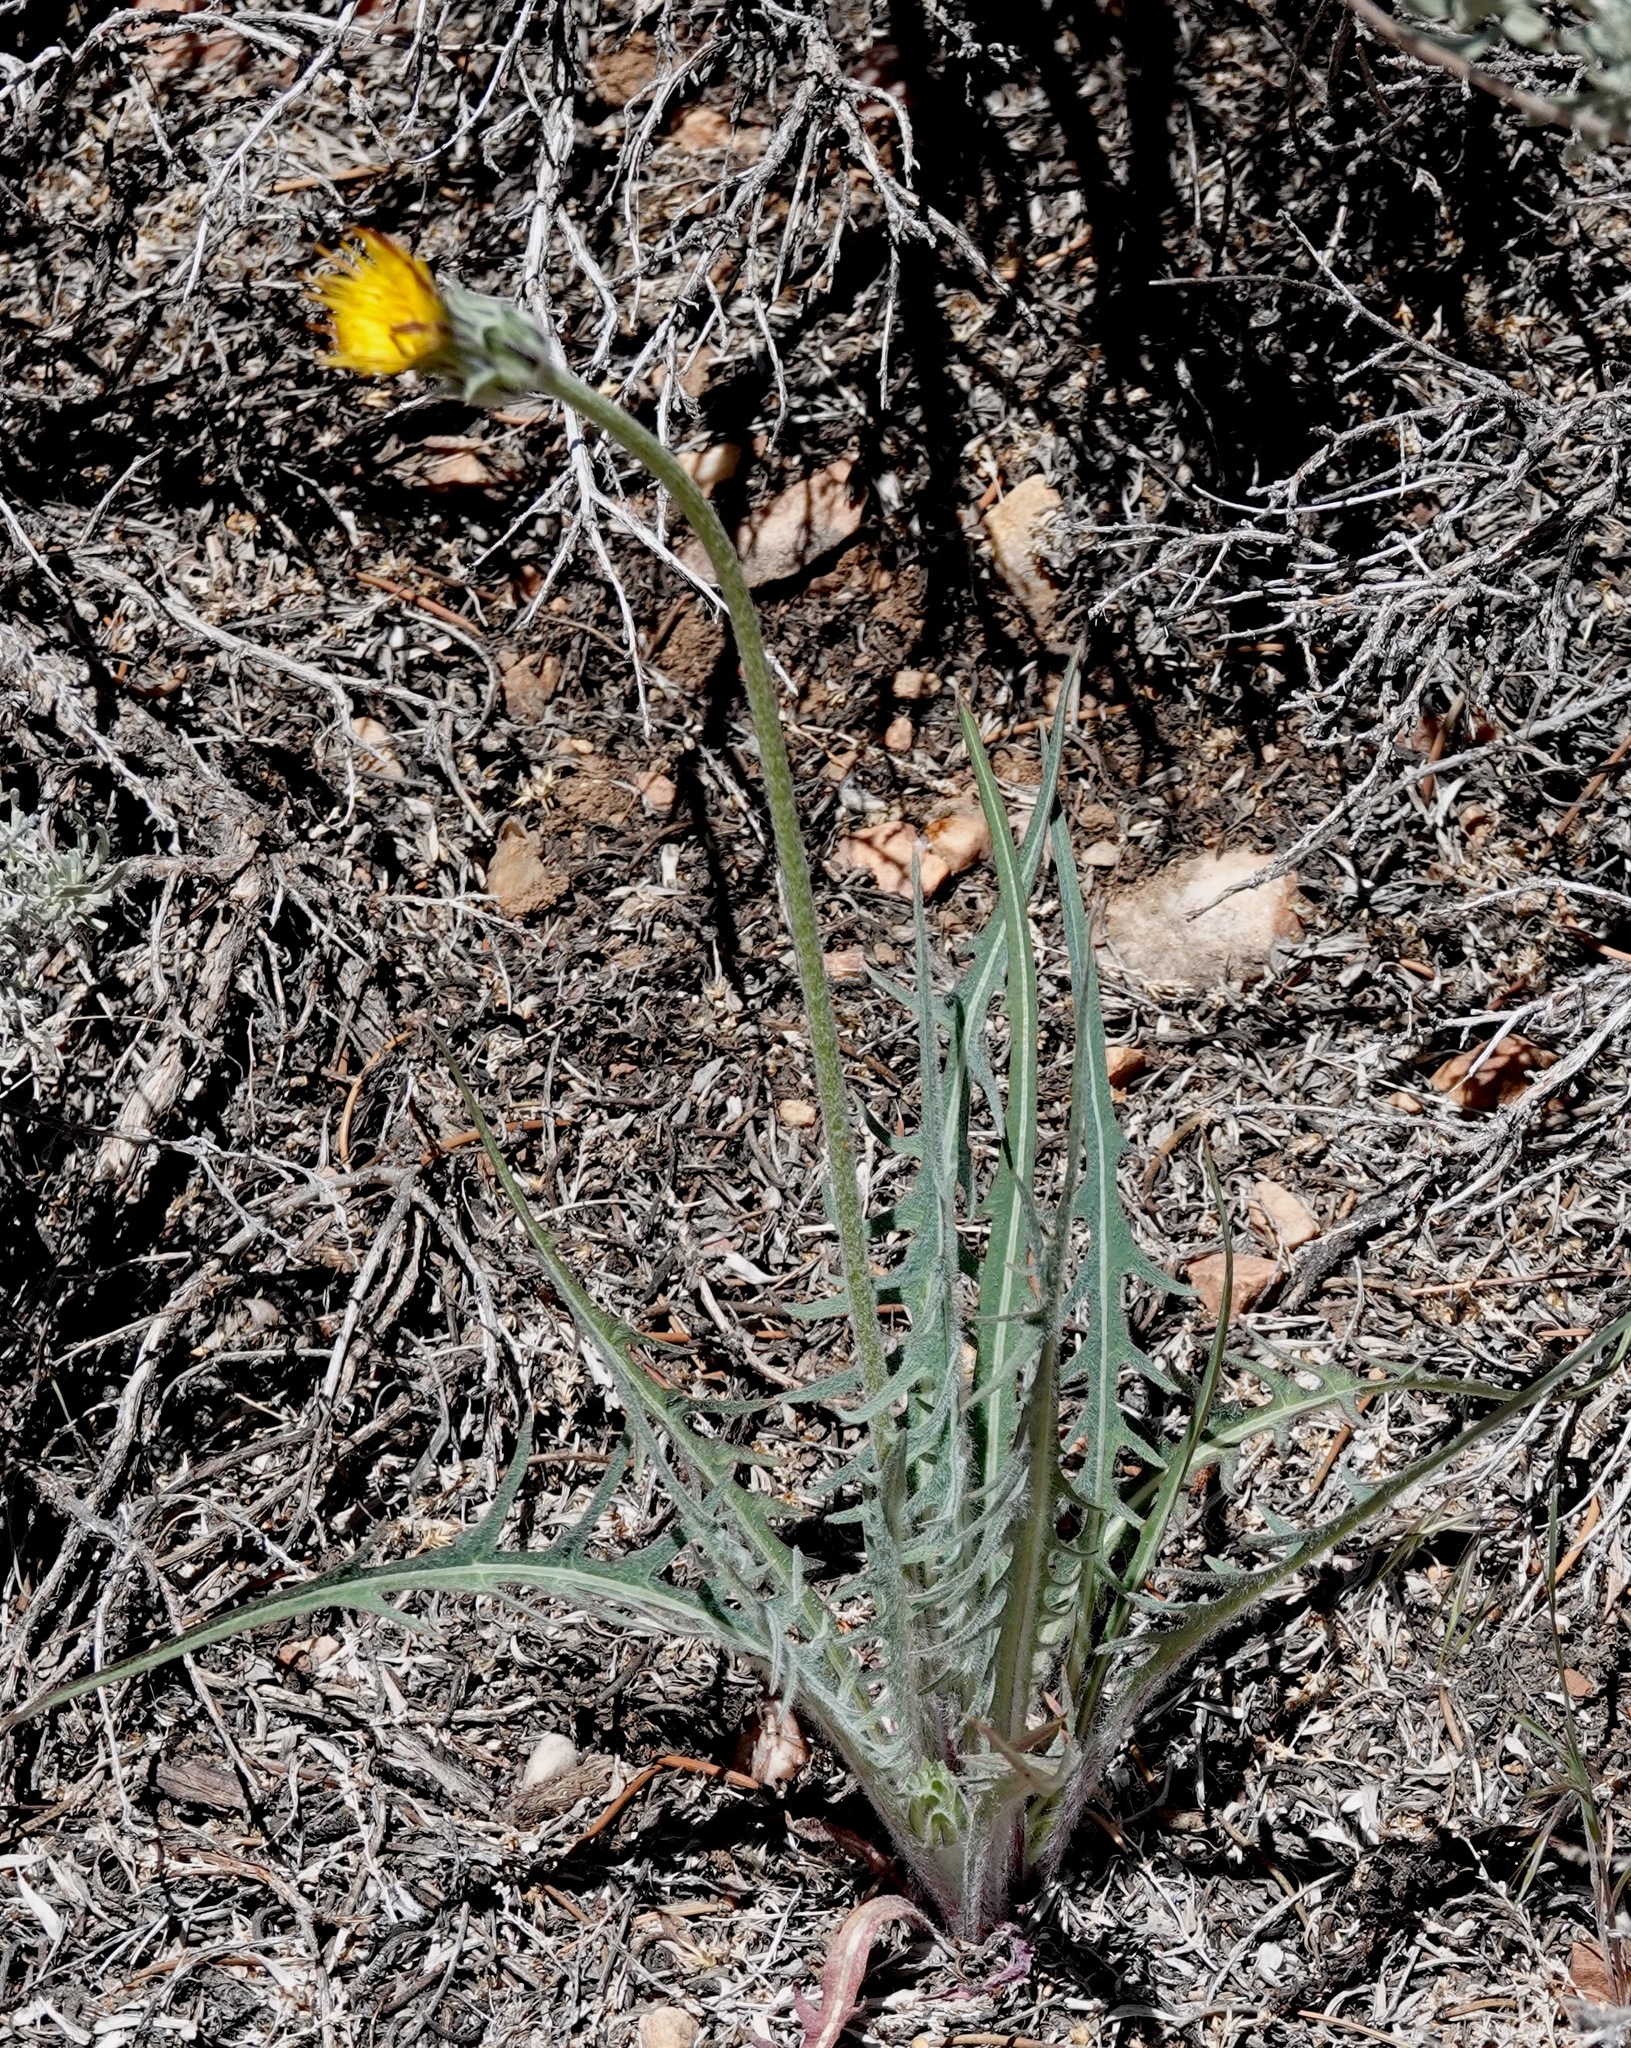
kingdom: Plantae
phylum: Tracheophyta
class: Magnoliopsida
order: Asterales
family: Asteraceae
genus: Agoseris
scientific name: Agoseris retrorsa
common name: Spearleaf agoseris
